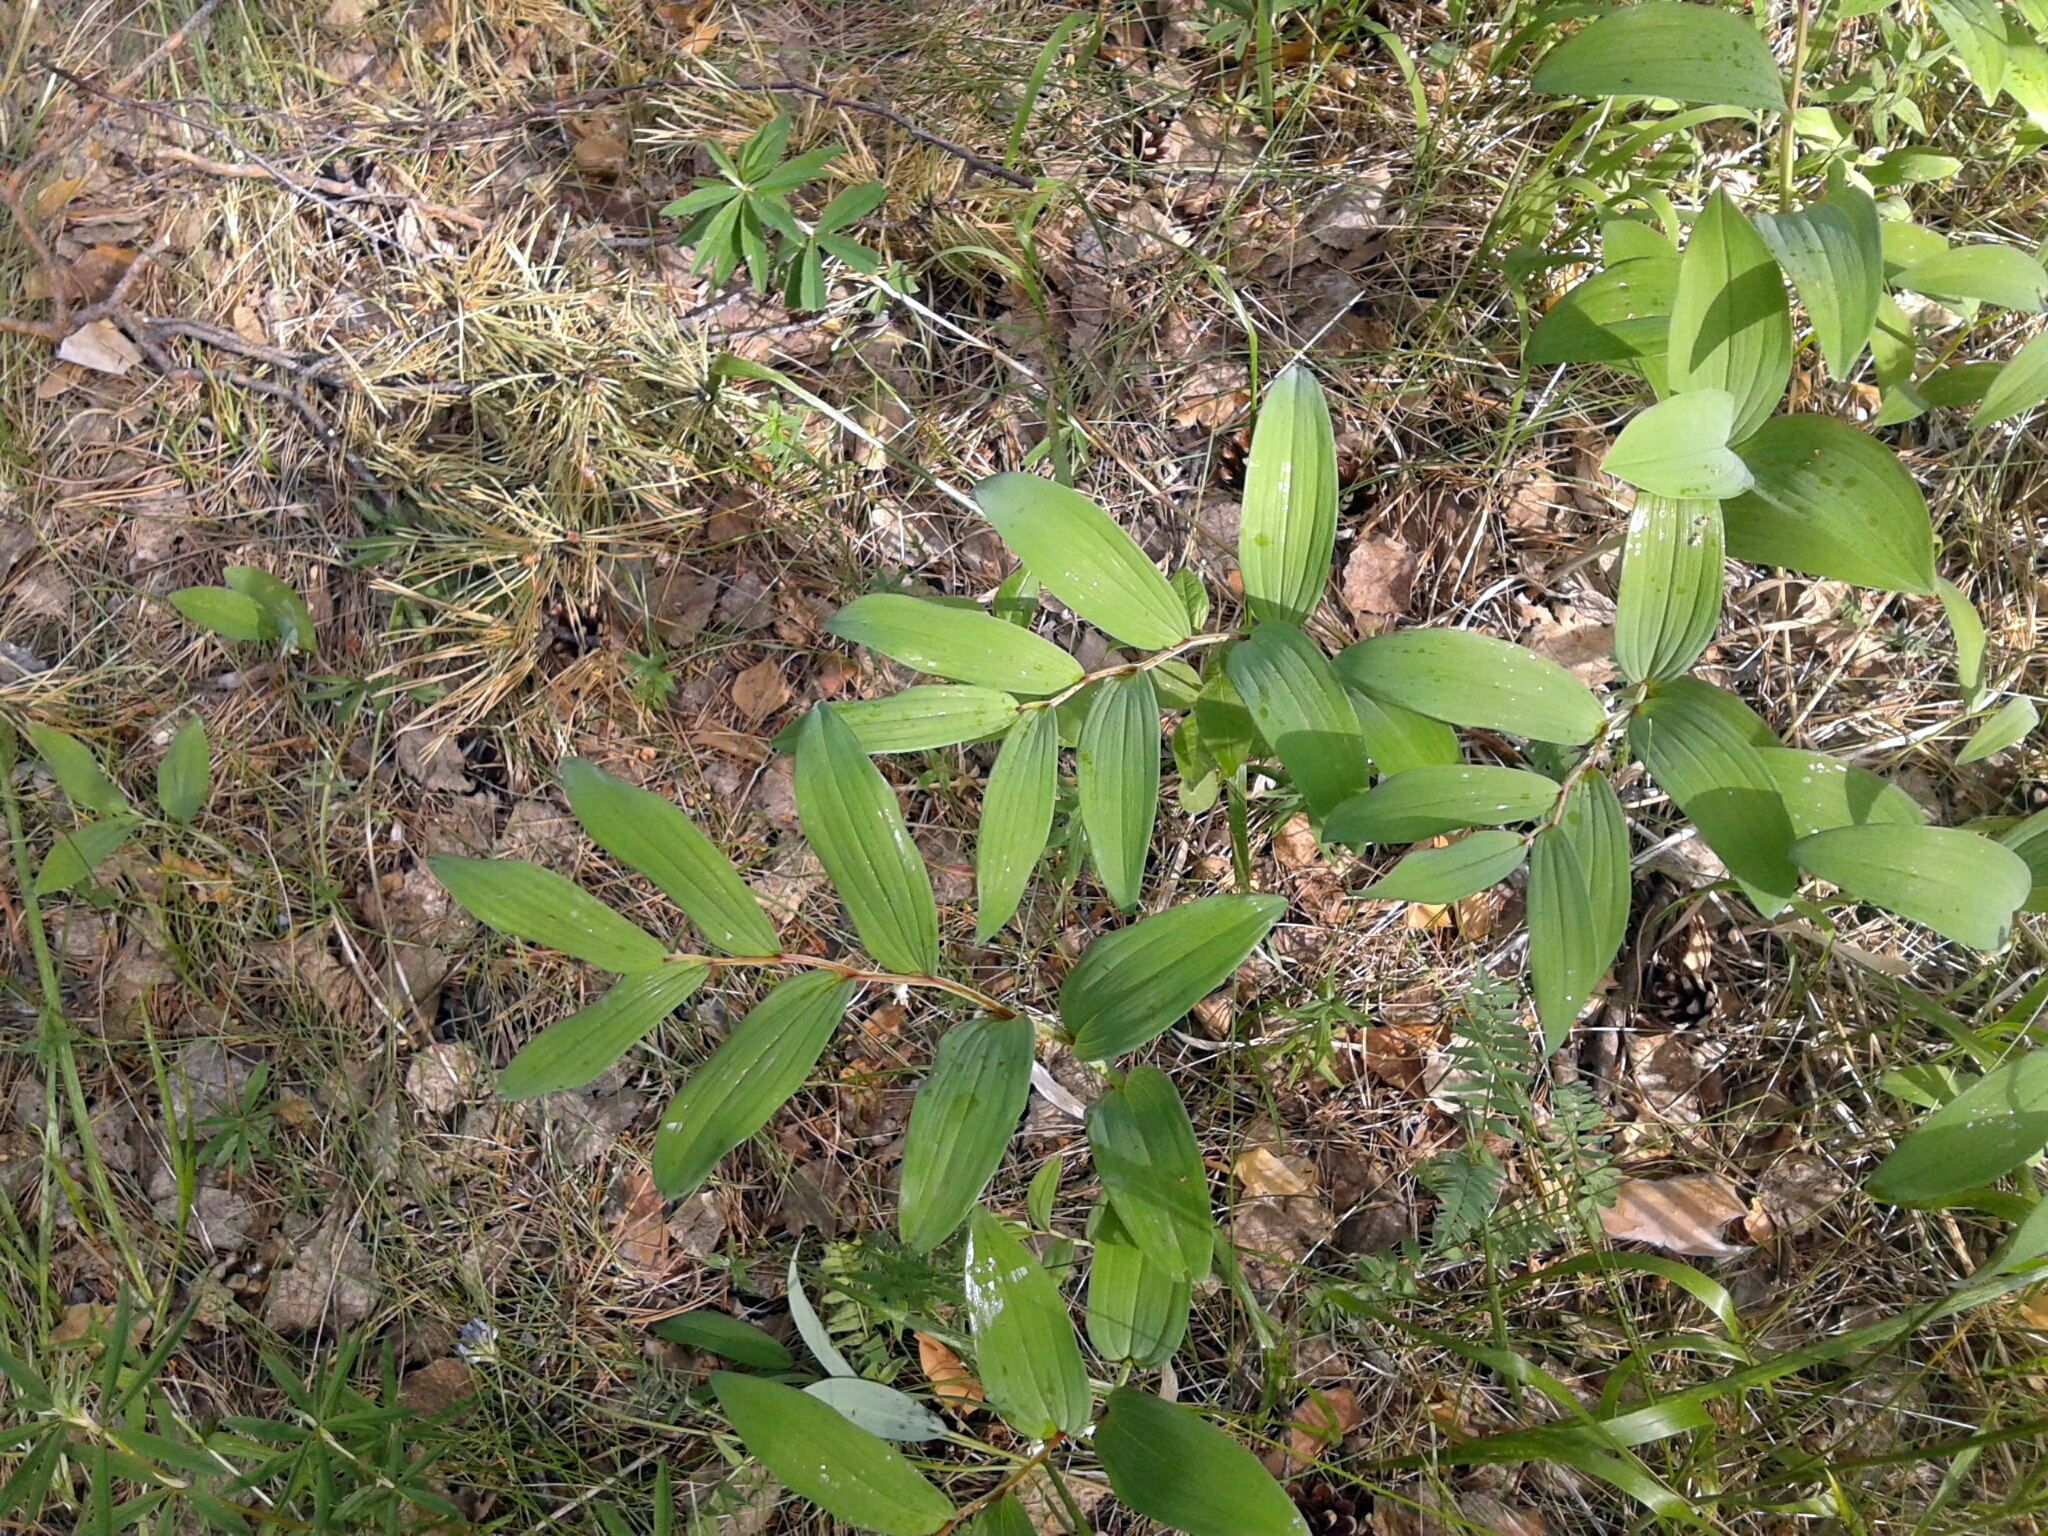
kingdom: Plantae
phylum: Tracheophyta
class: Liliopsida
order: Asparagales
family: Asparagaceae
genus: Polygonatum
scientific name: Polygonatum odoratum
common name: Angular solomon's-seal
